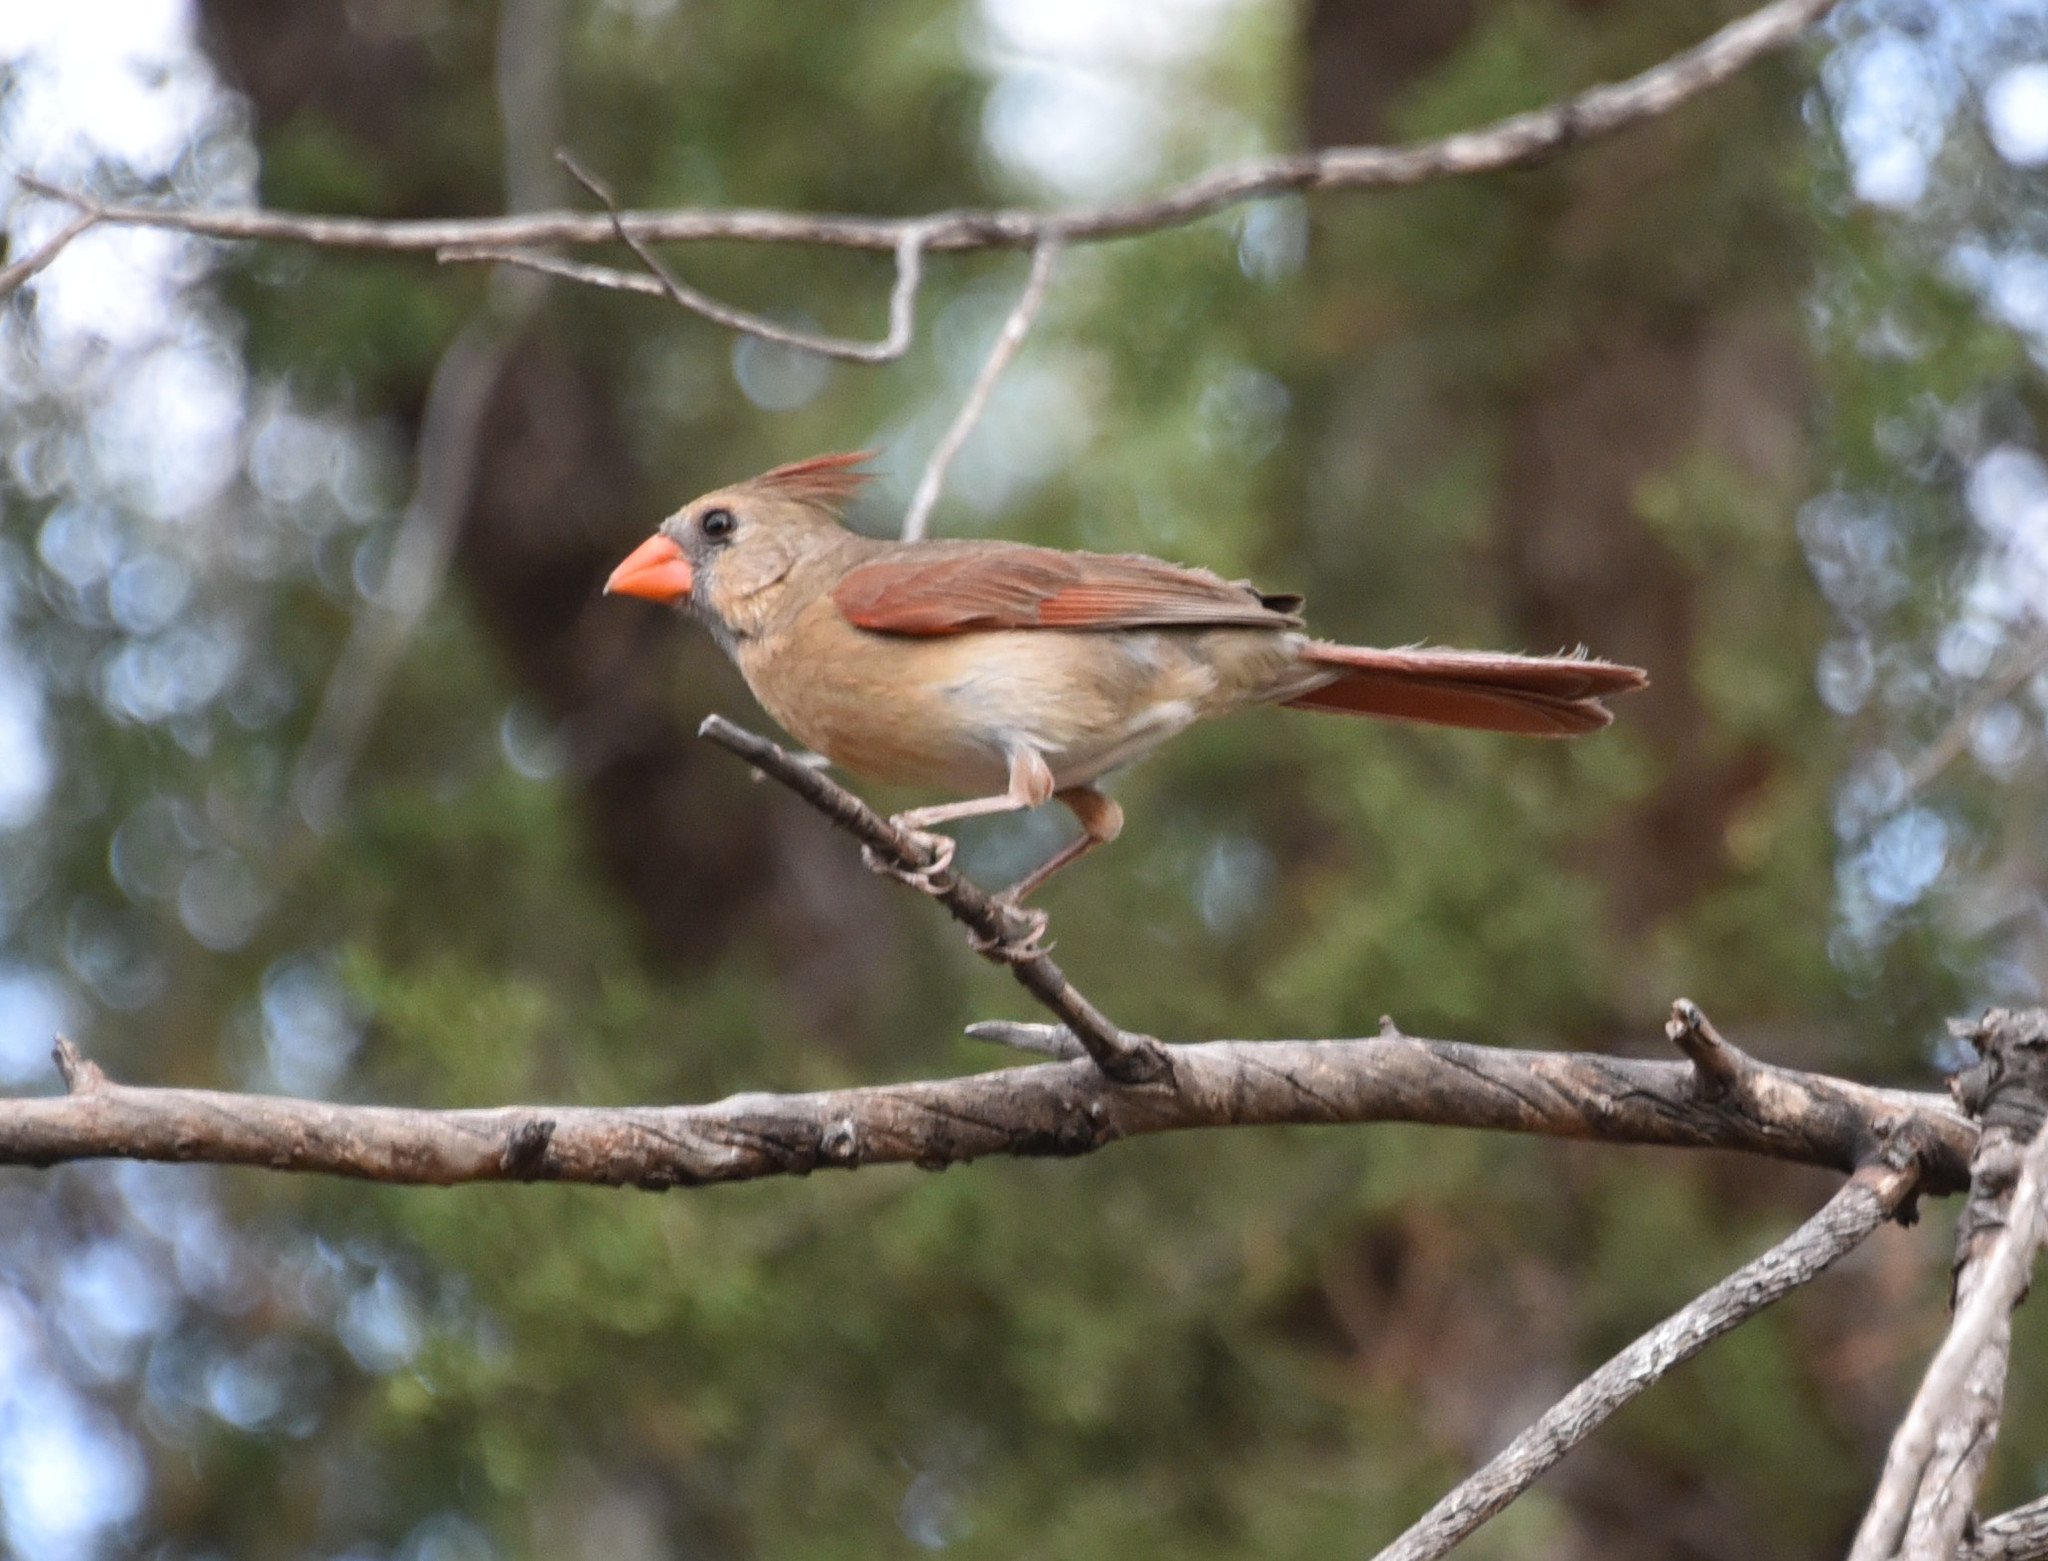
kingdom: Animalia
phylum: Chordata
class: Aves
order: Passeriformes
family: Cardinalidae
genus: Cardinalis
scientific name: Cardinalis cardinalis
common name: Northern cardinal
